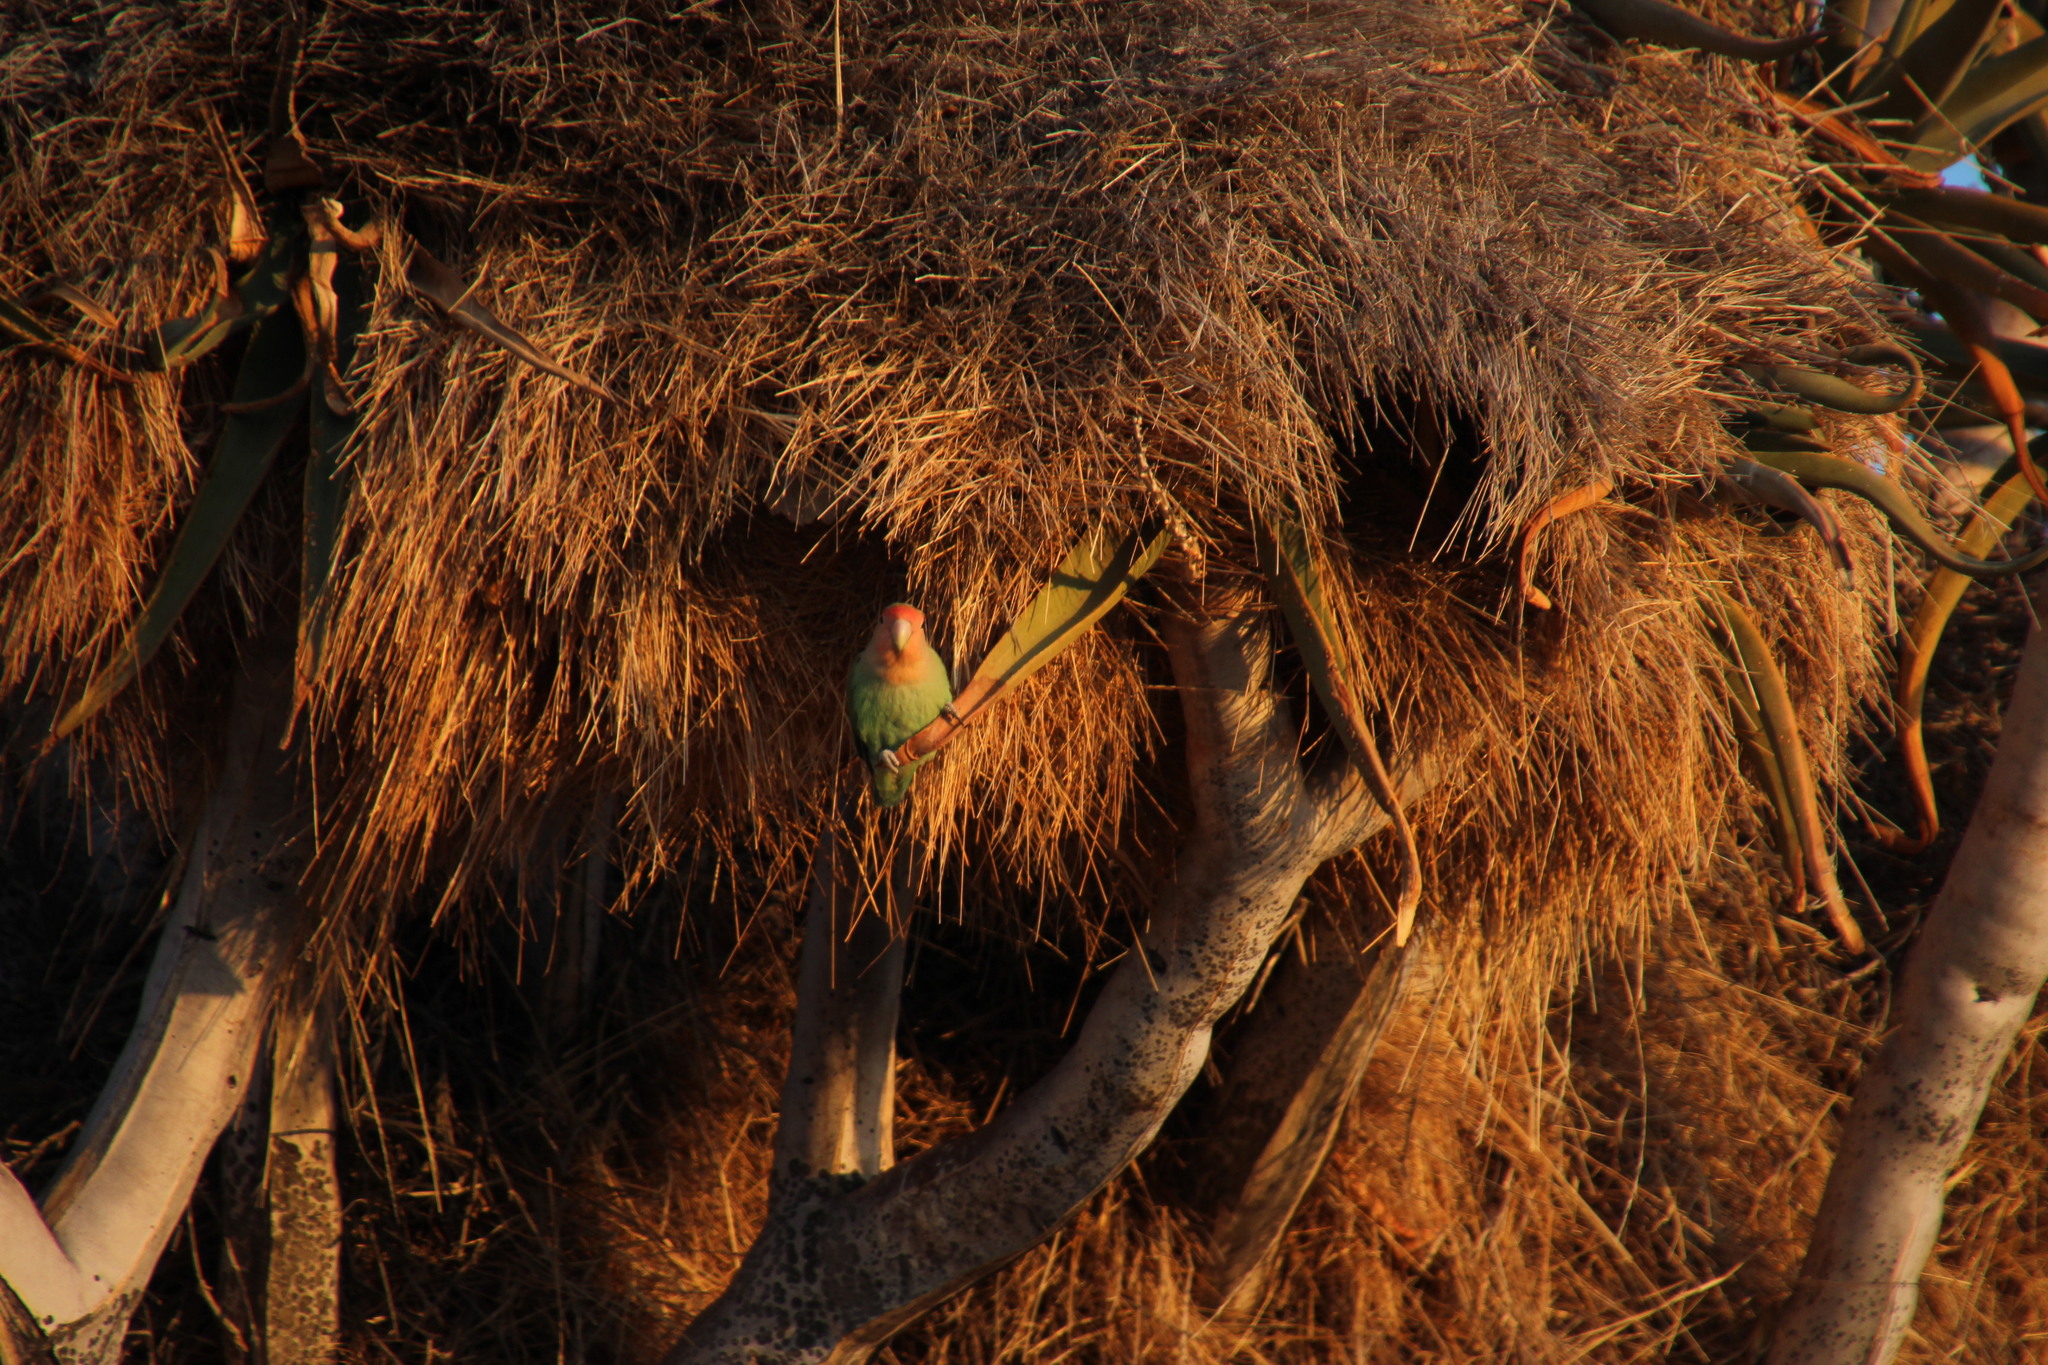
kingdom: Animalia
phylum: Chordata
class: Aves
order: Psittaciformes
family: Psittacidae
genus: Agapornis
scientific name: Agapornis roseicollis
